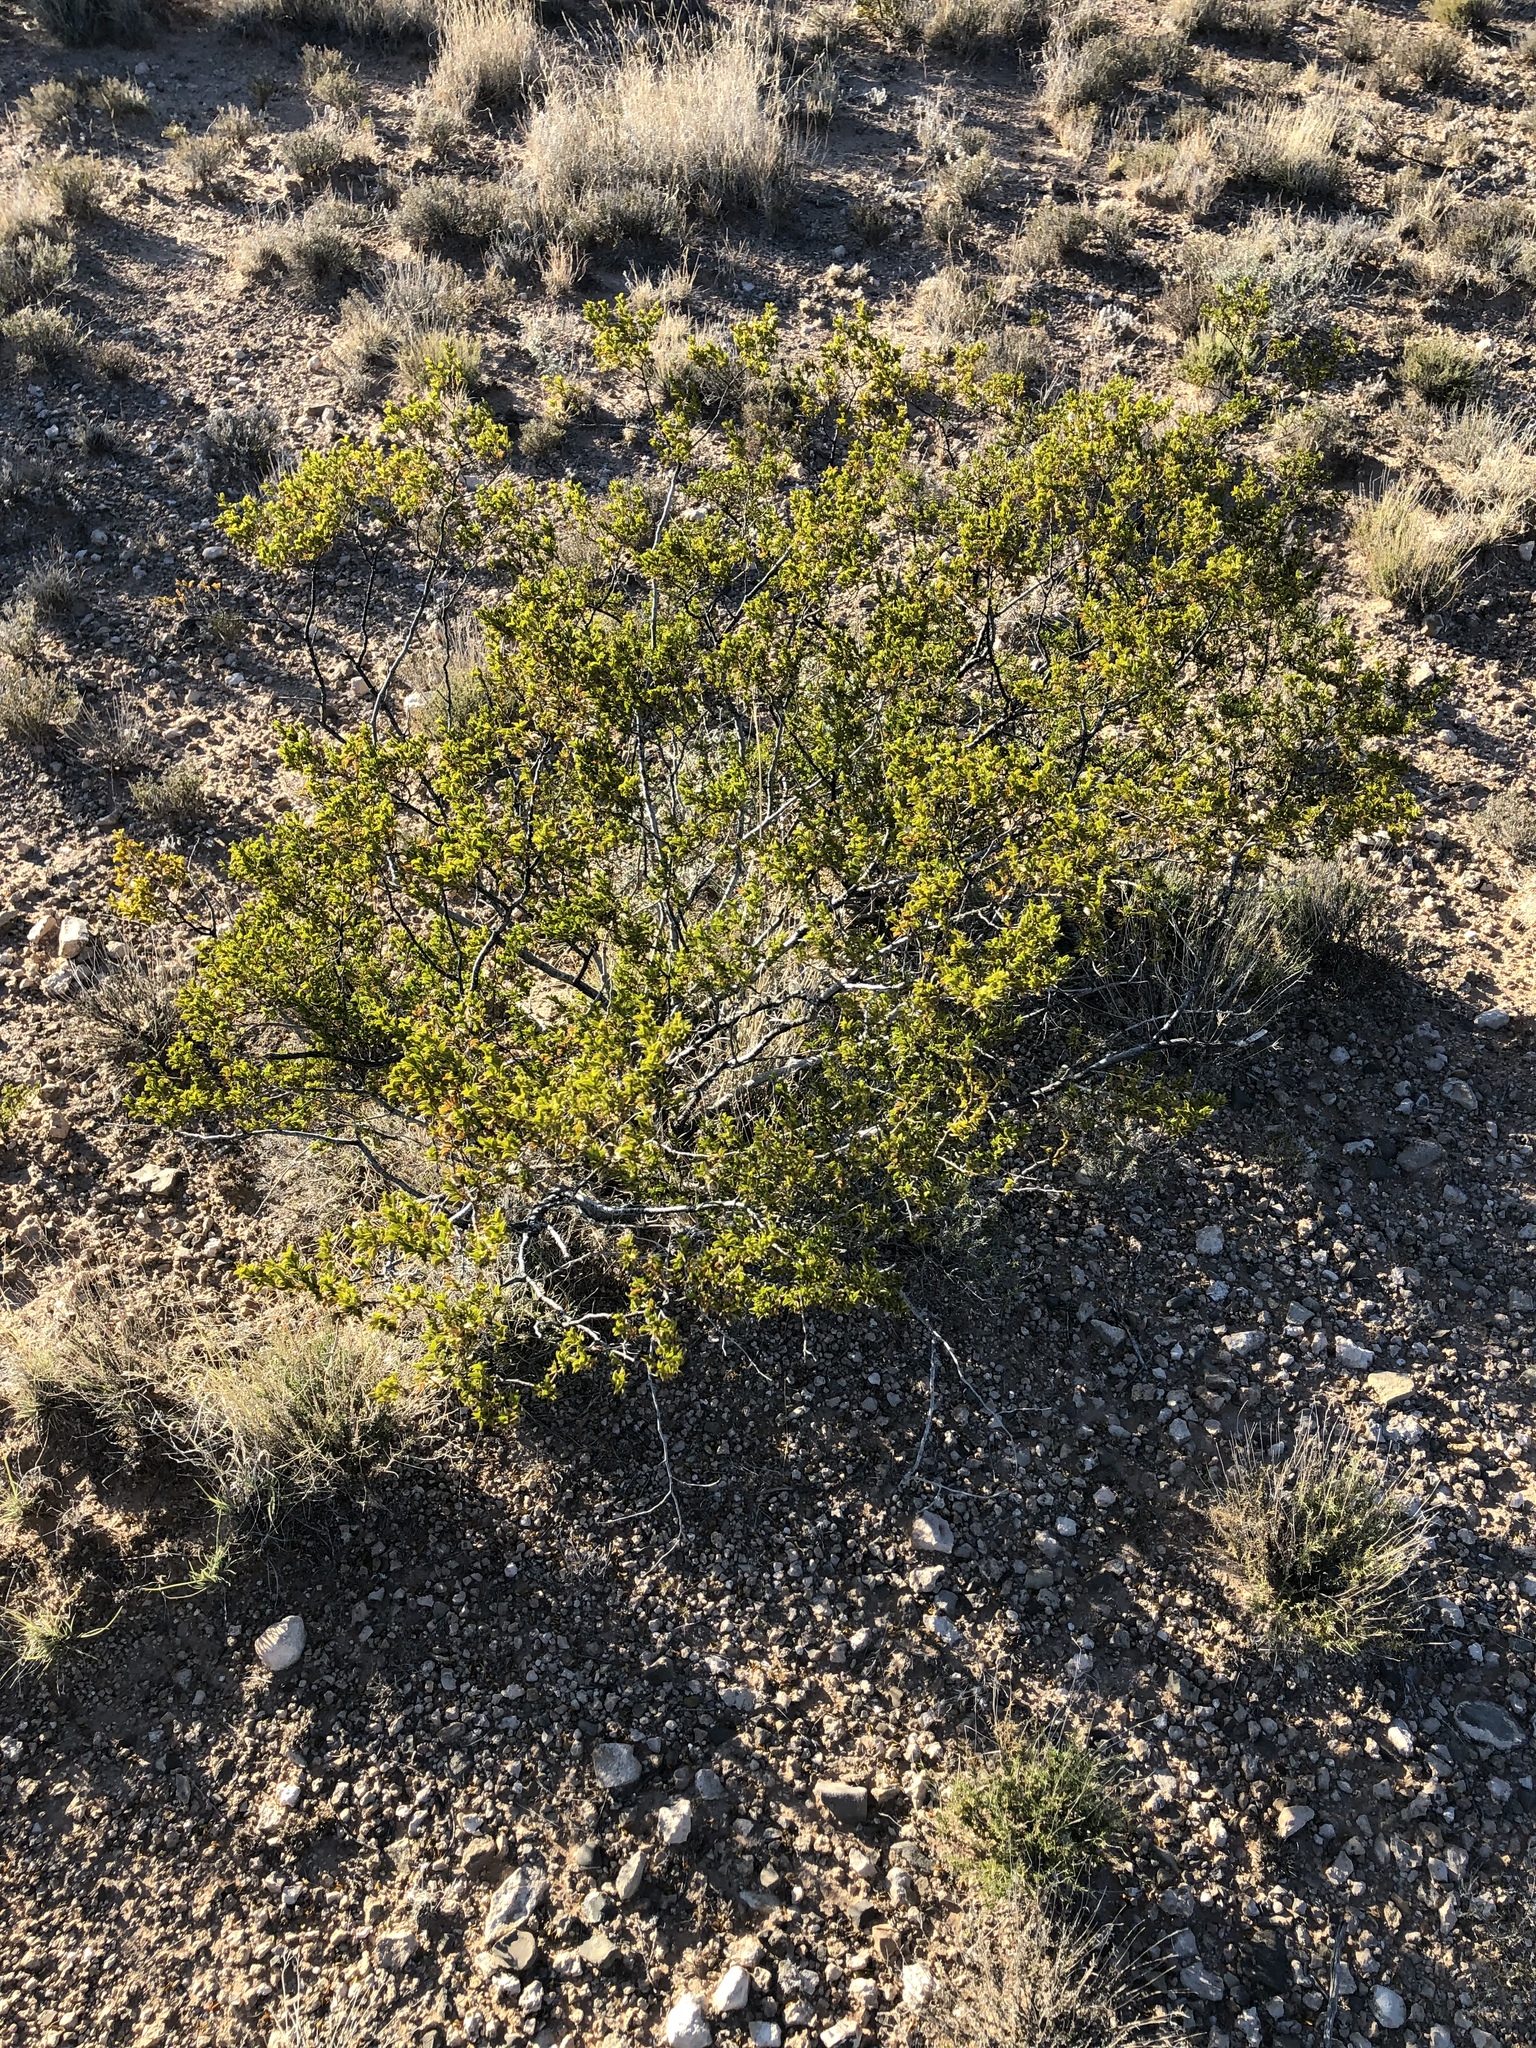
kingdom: Plantae
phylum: Tracheophyta
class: Magnoliopsida
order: Zygophyllales
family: Zygophyllaceae
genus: Larrea
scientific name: Larrea tridentata
